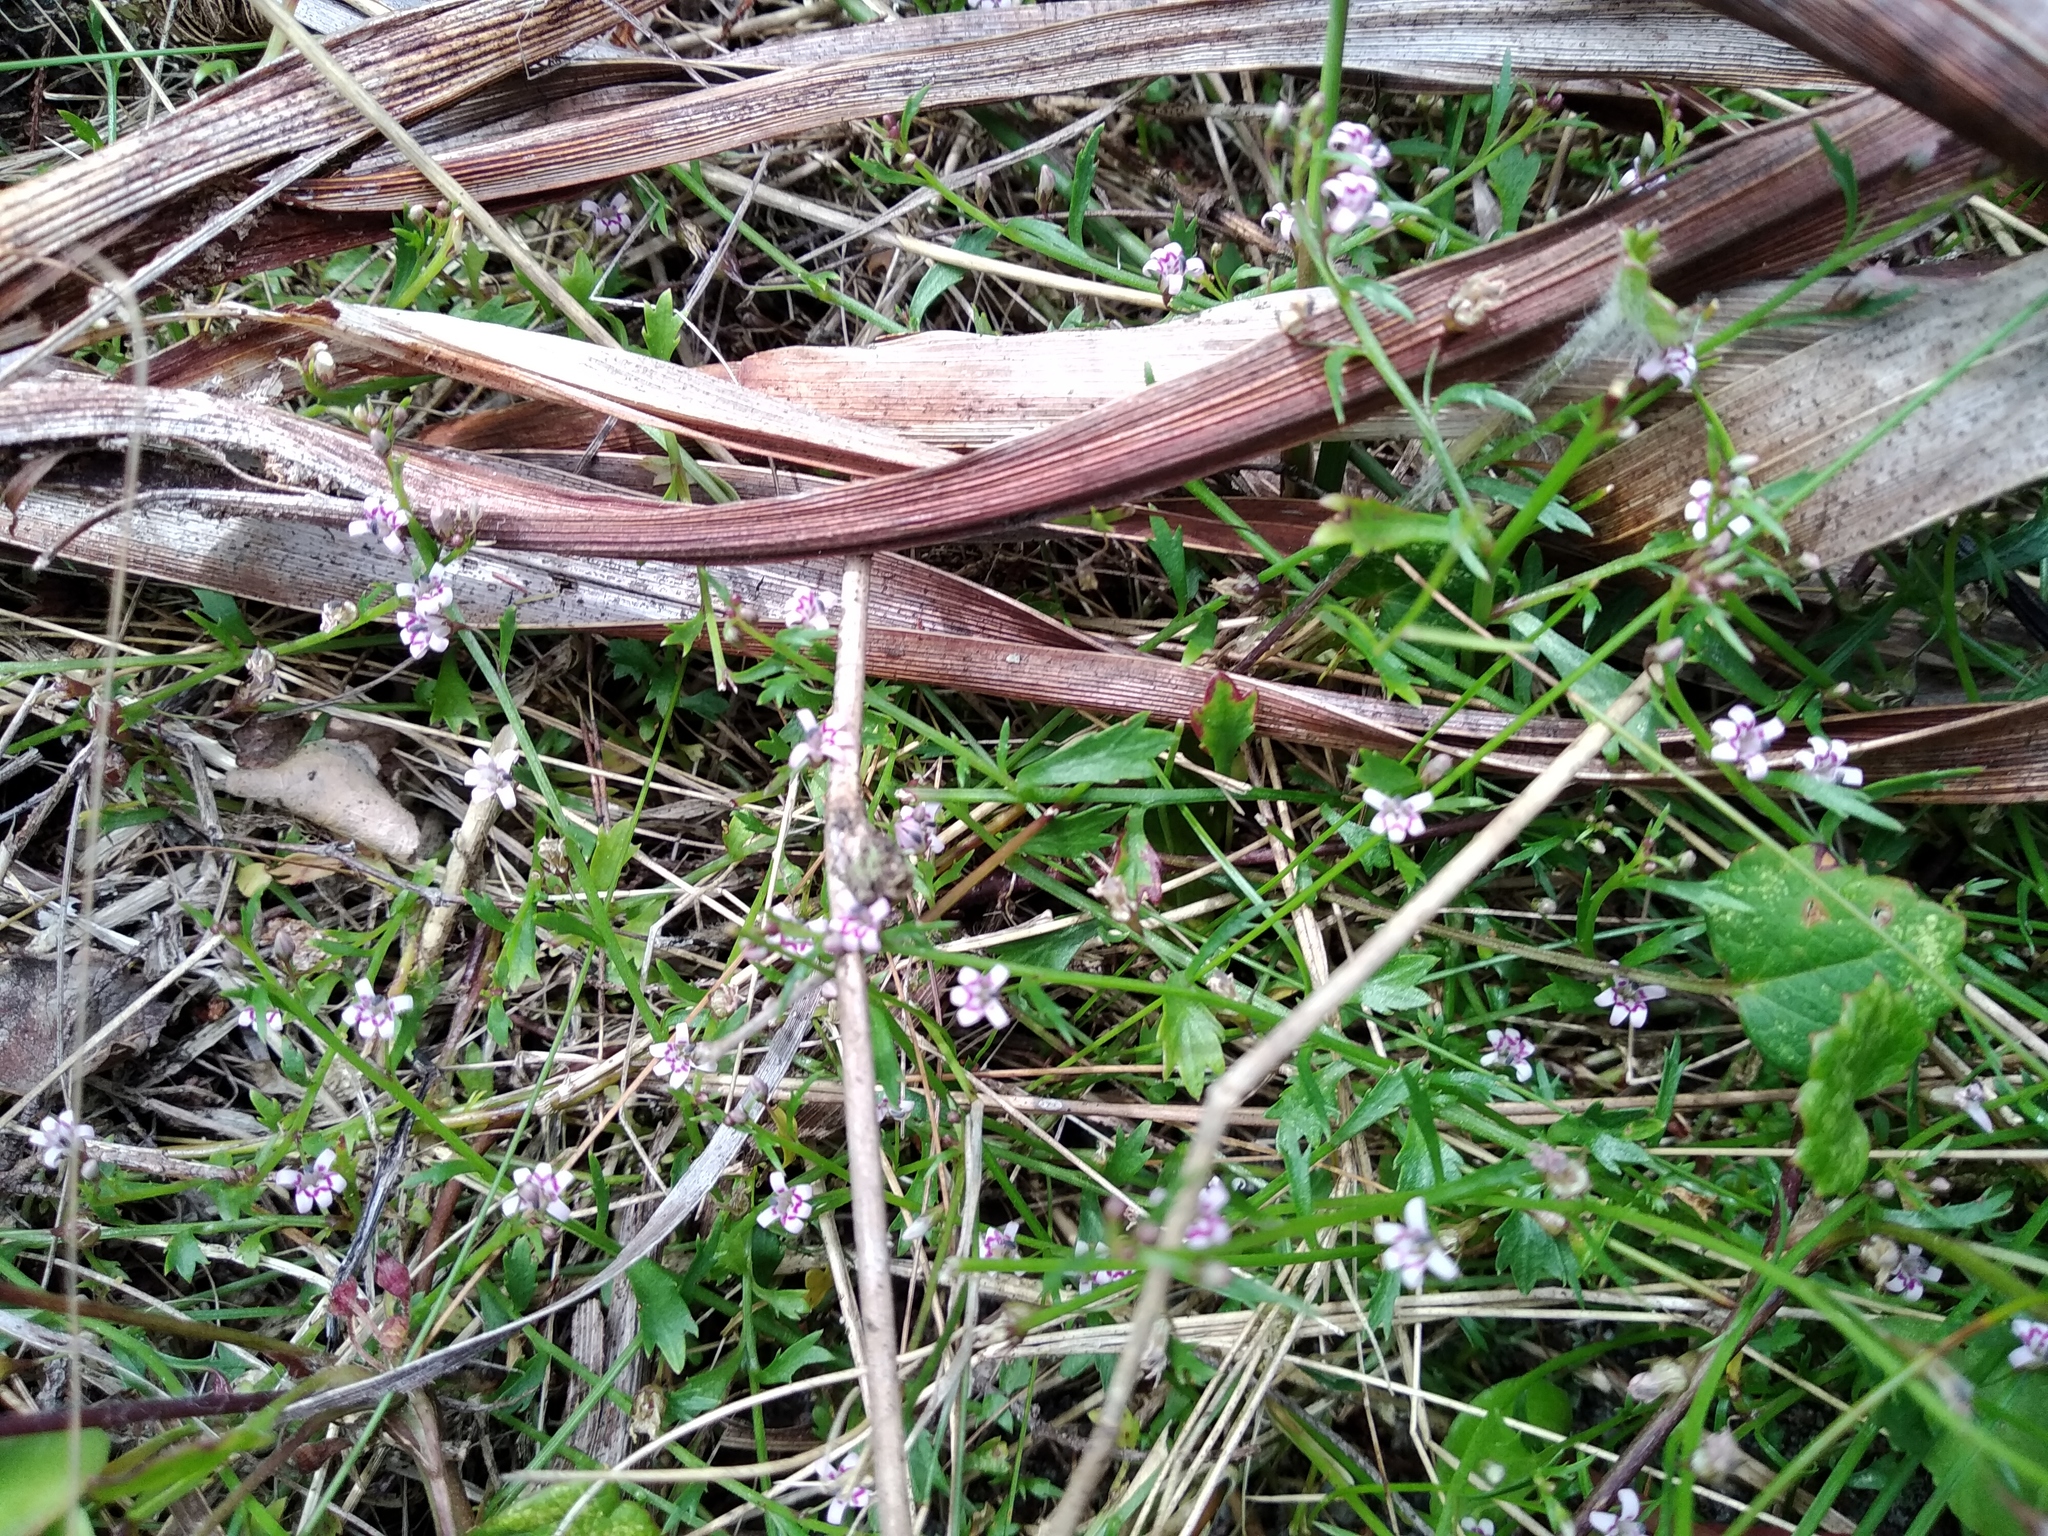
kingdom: Plantae
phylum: Tracheophyta
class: Magnoliopsida
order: Asterales
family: Campanulaceae
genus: Lobelia
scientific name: Lobelia eckloniana
